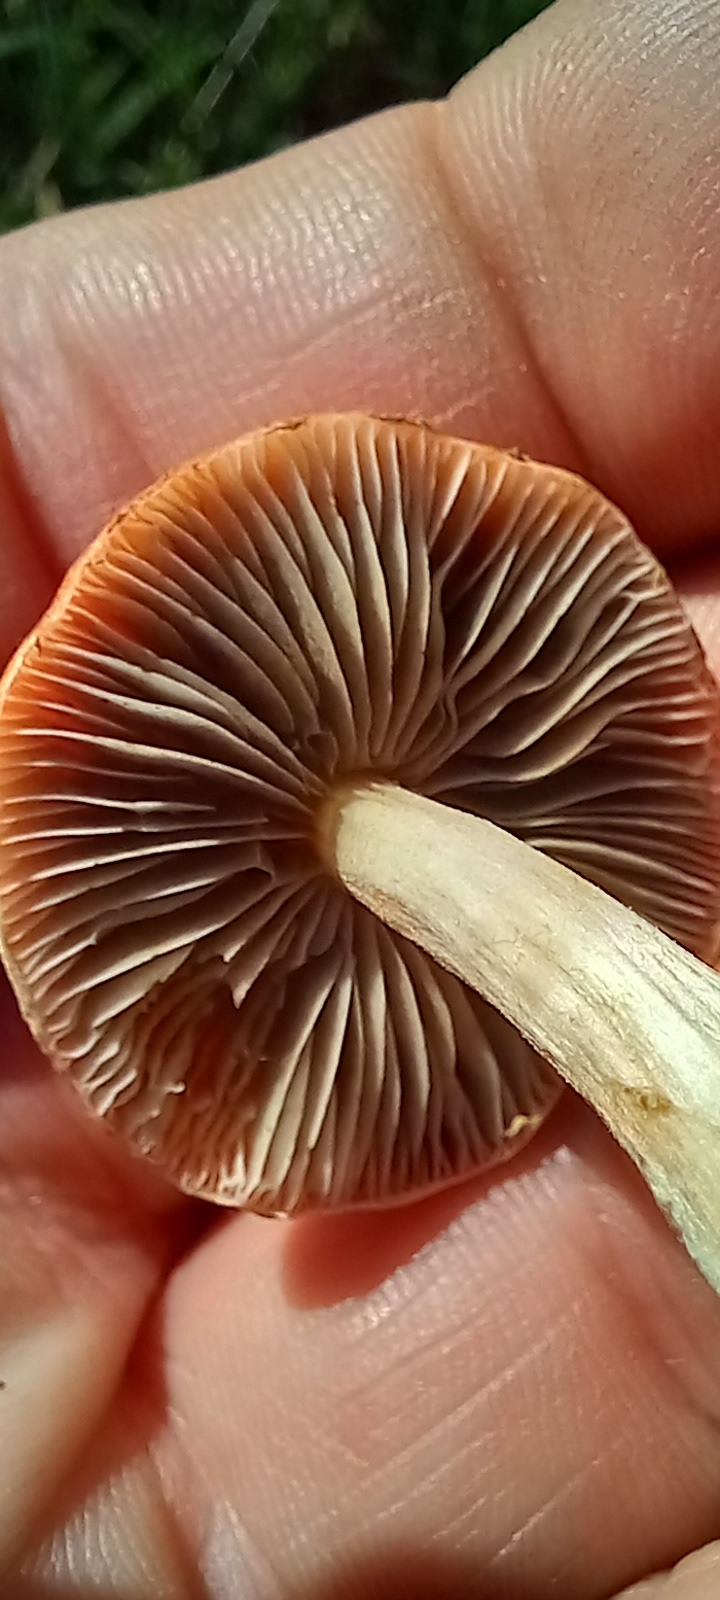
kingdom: Fungi
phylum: Basidiomycota
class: Agaricomycetes
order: Agaricales
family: Strophariaceae
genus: Leratiomyces
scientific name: Leratiomyces ceres
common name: Redlead roundhead
